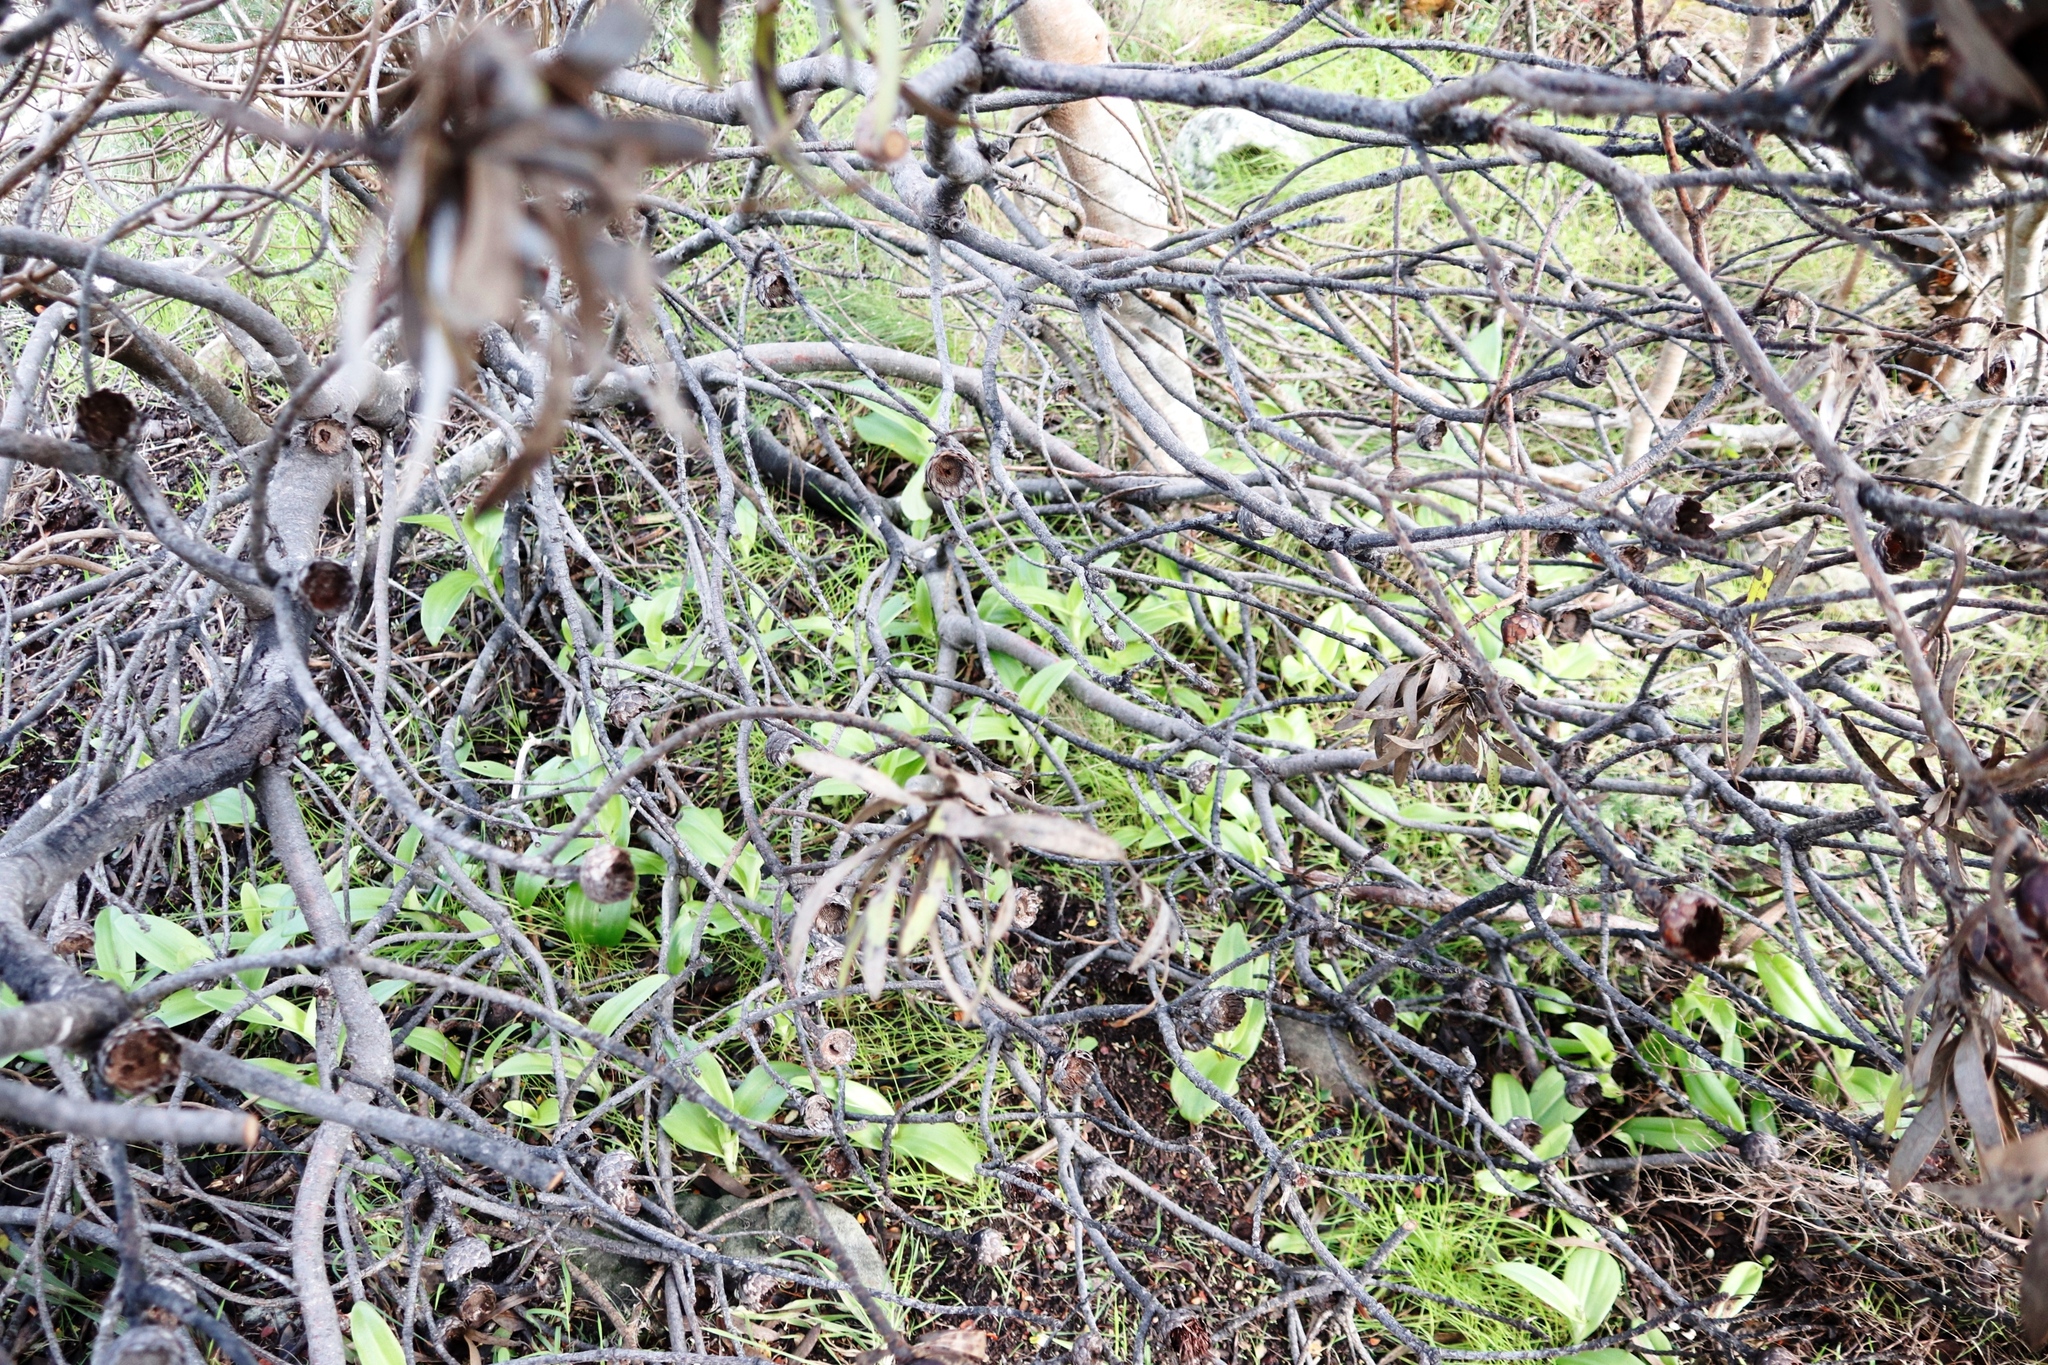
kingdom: Plantae
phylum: Tracheophyta
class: Liliopsida
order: Asparagales
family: Orchidaceae
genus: Satyrium
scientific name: Satyrium odorum
